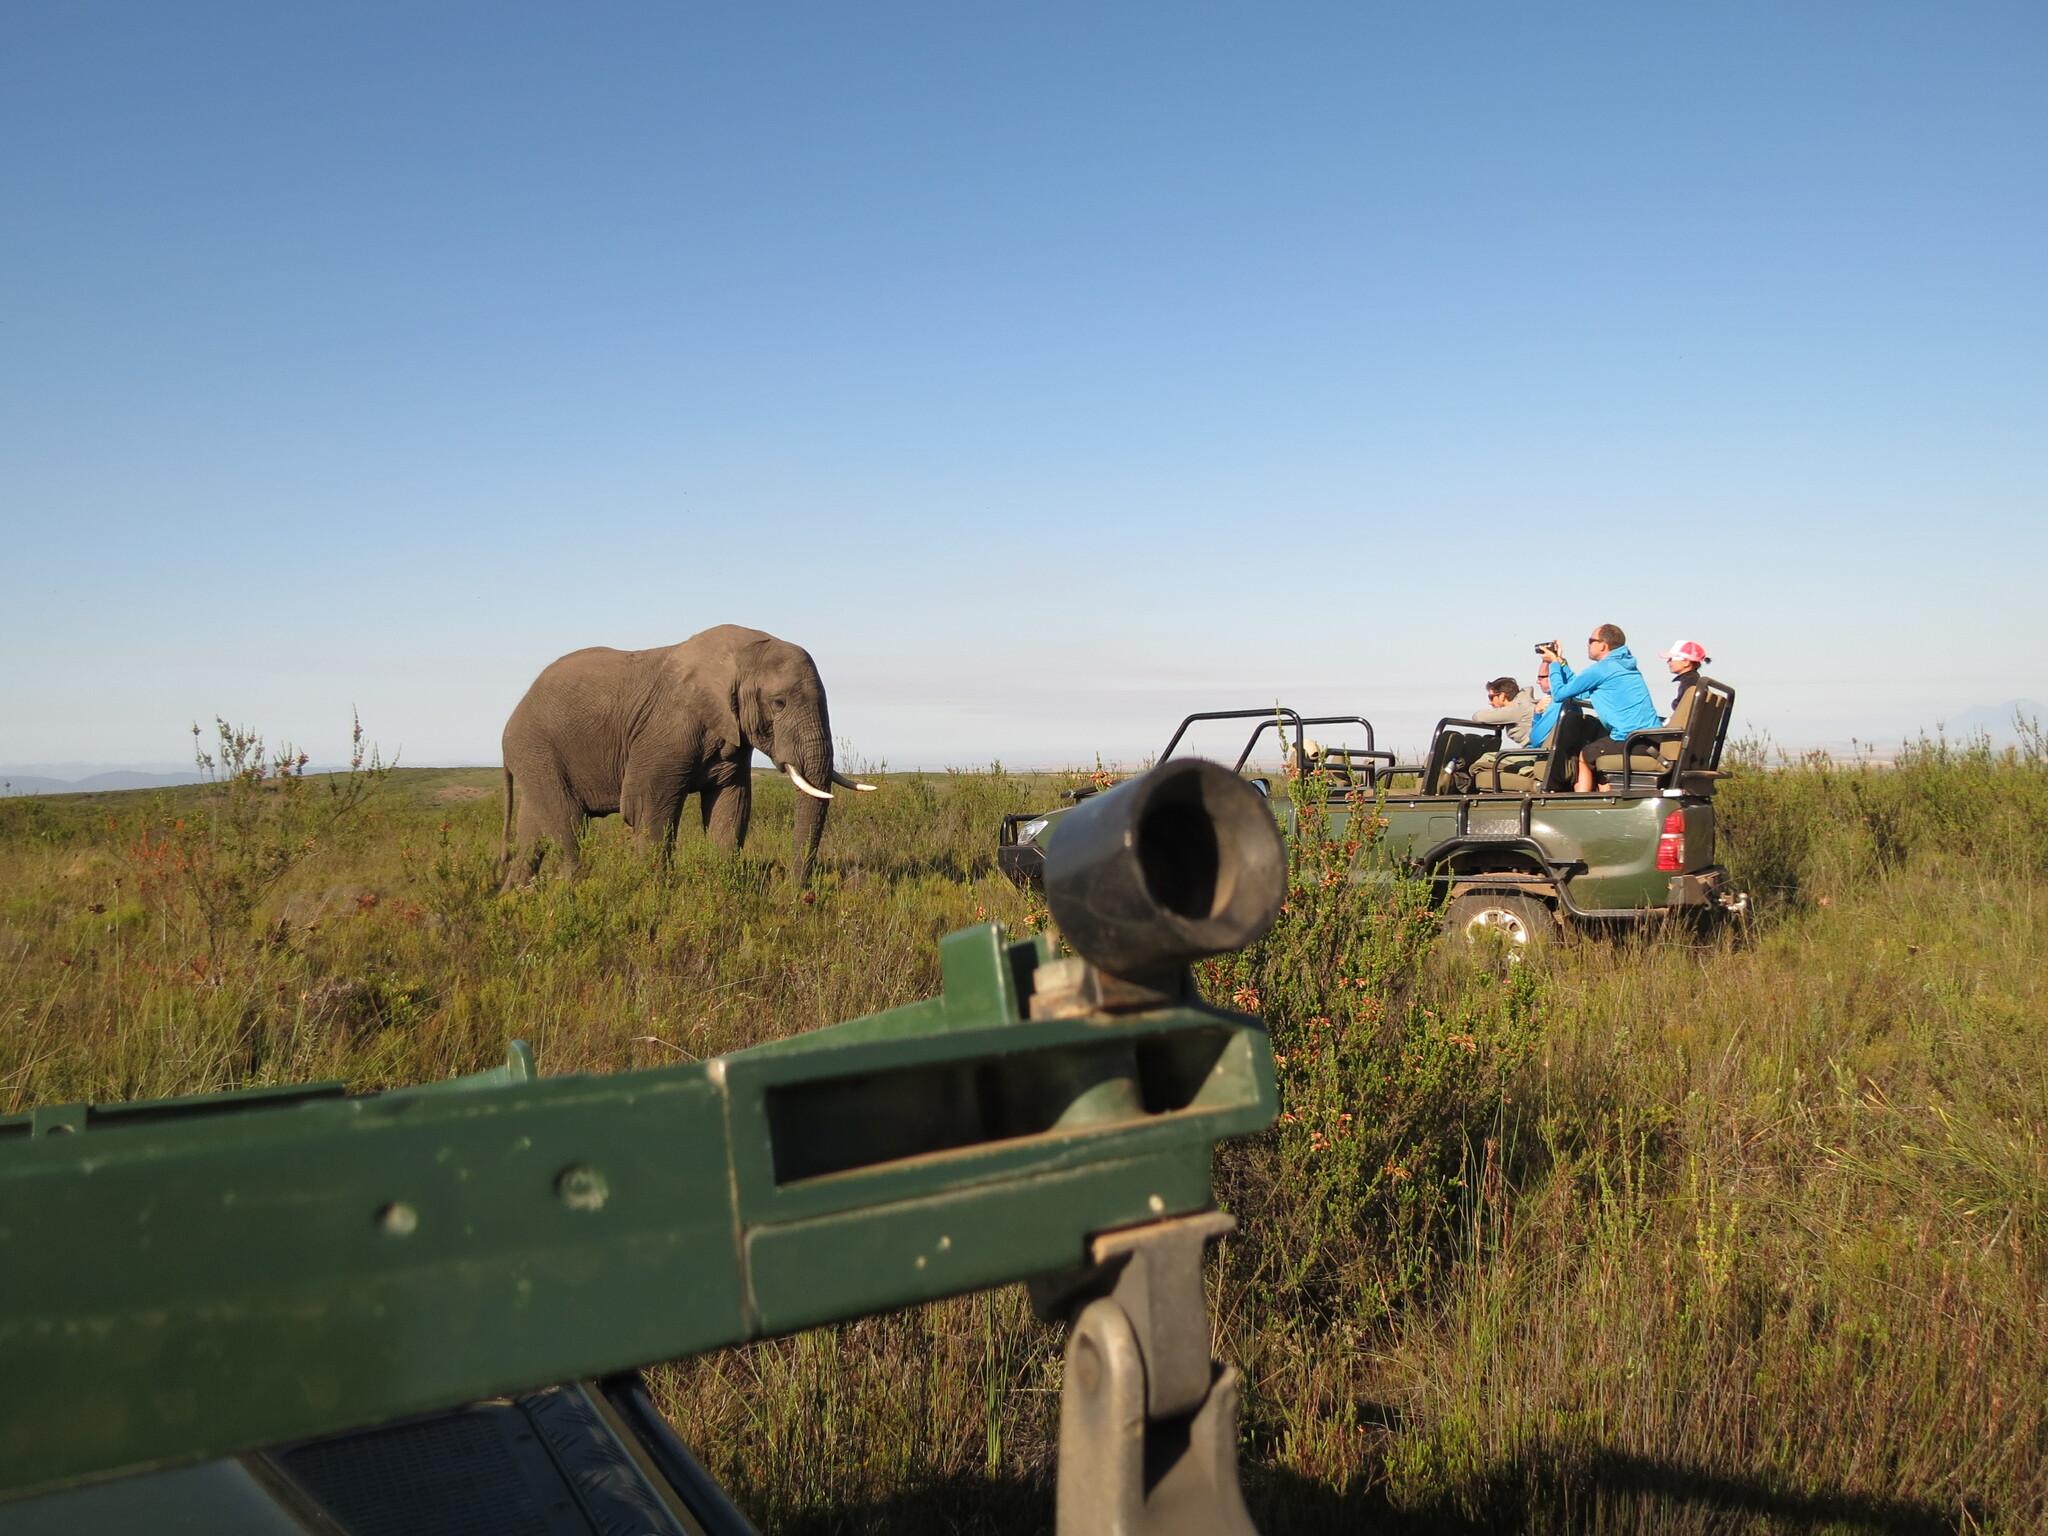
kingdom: Animalia
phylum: Chordata
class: Mammalia
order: Proboscidea
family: Elephantidae
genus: Loxodonta
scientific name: Loxodonta africana
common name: African elephant
